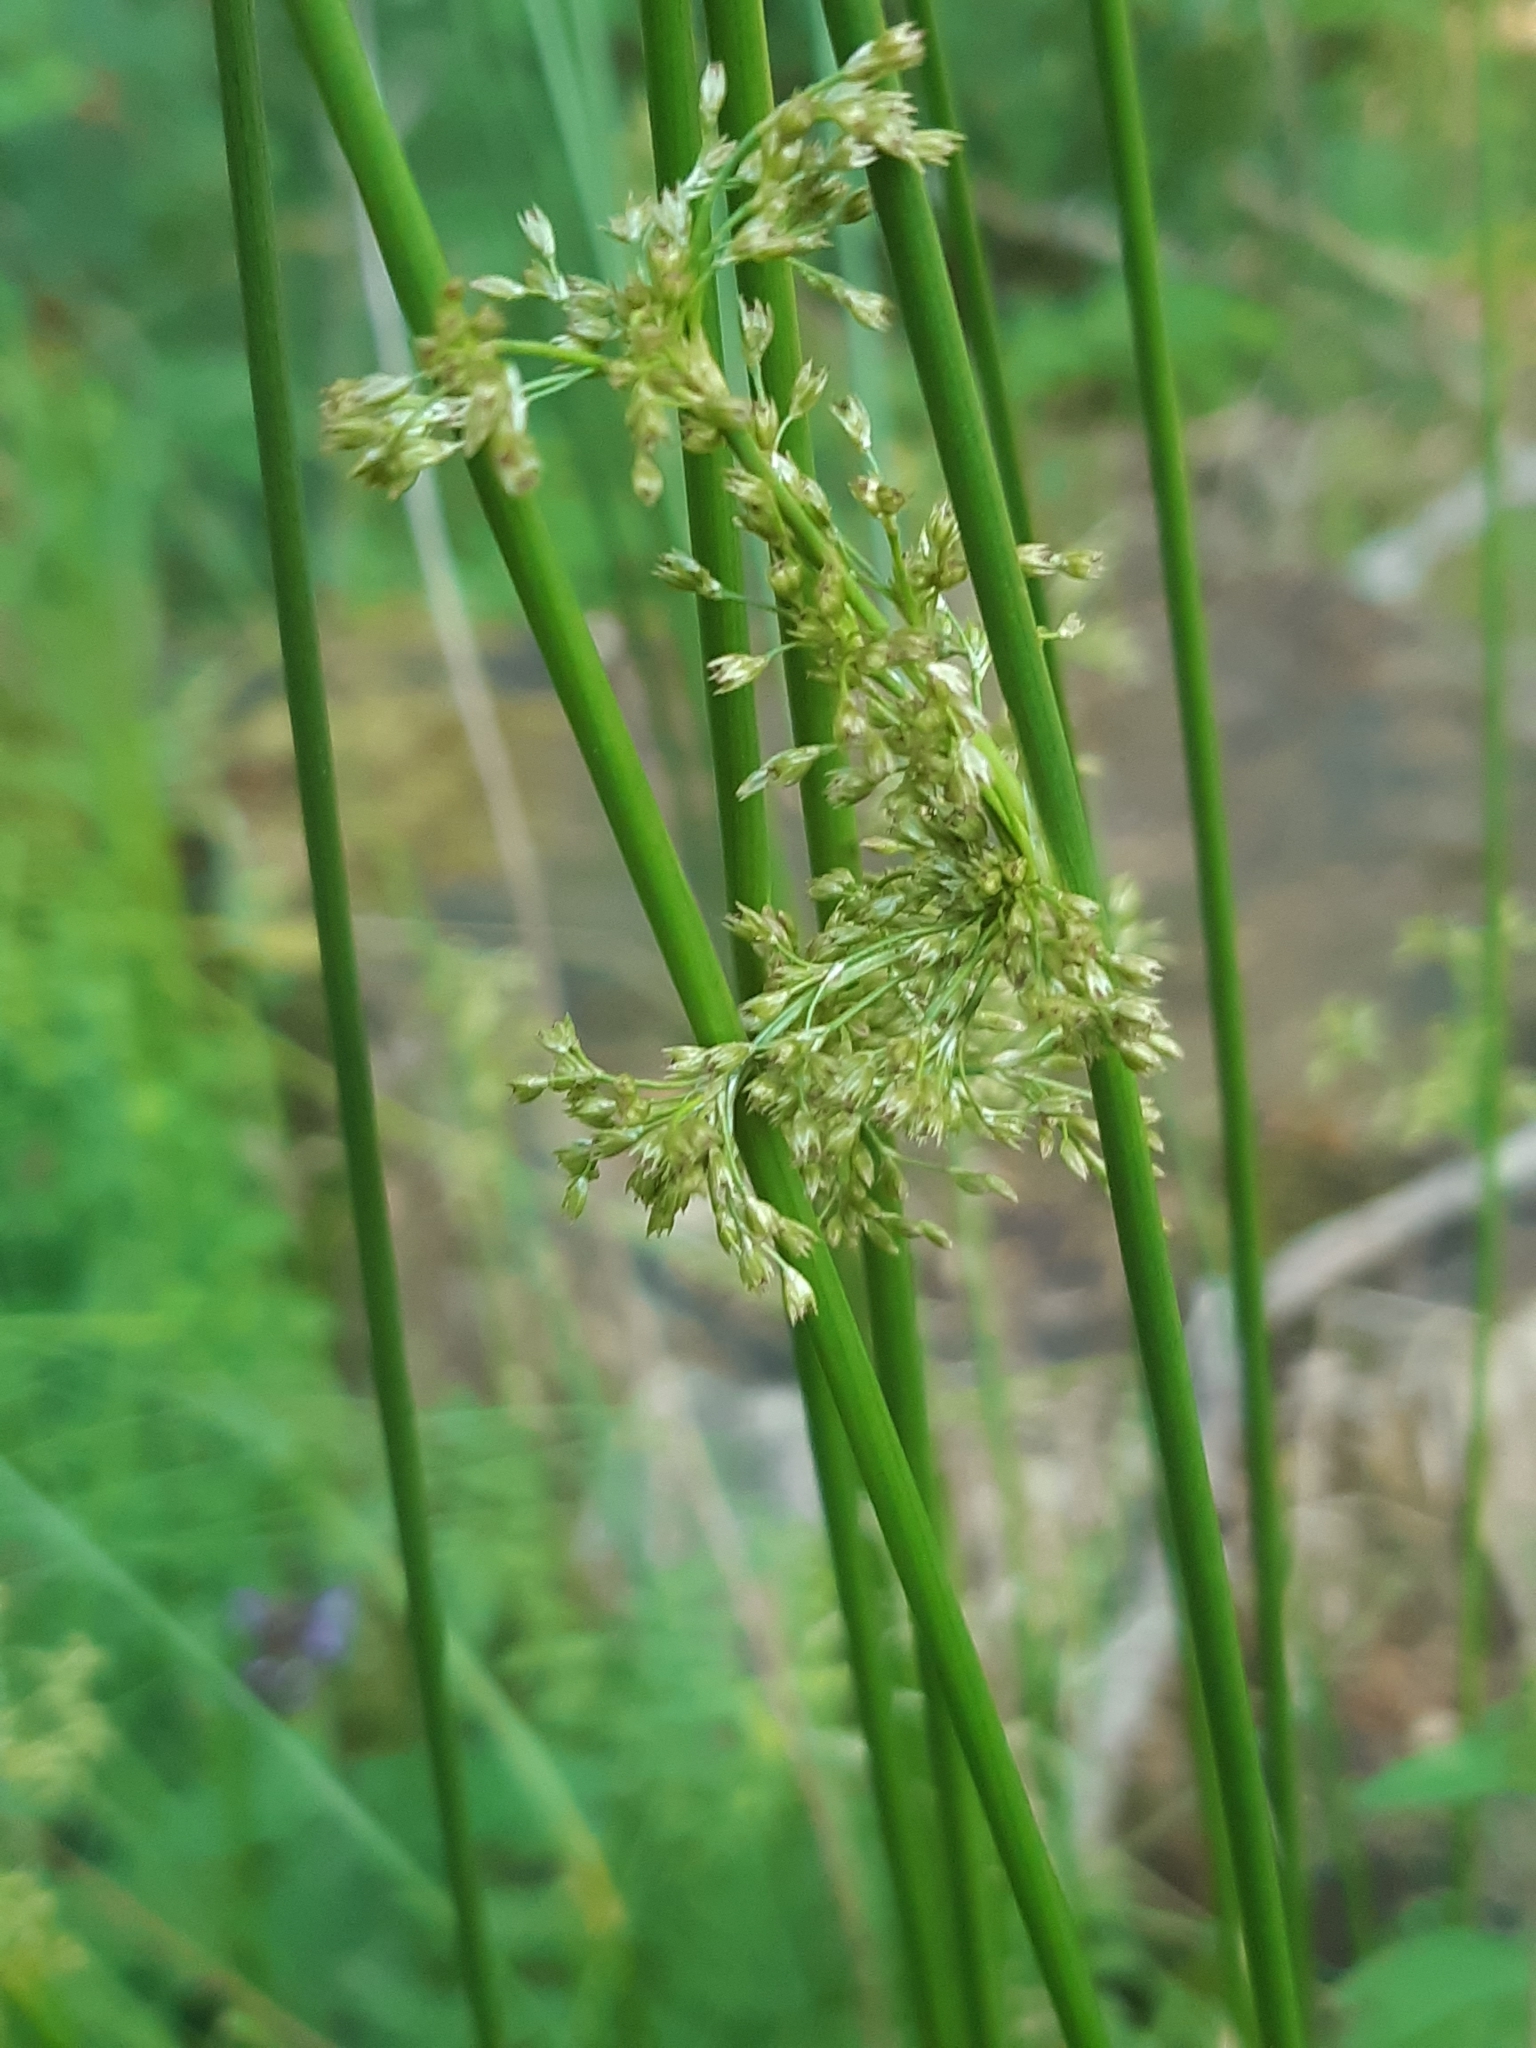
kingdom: Plantae
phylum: Tracheophyta
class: Liliopsida
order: Poales
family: Juncaceae
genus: Juncus
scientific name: Juncus effusus
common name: Soft rush
